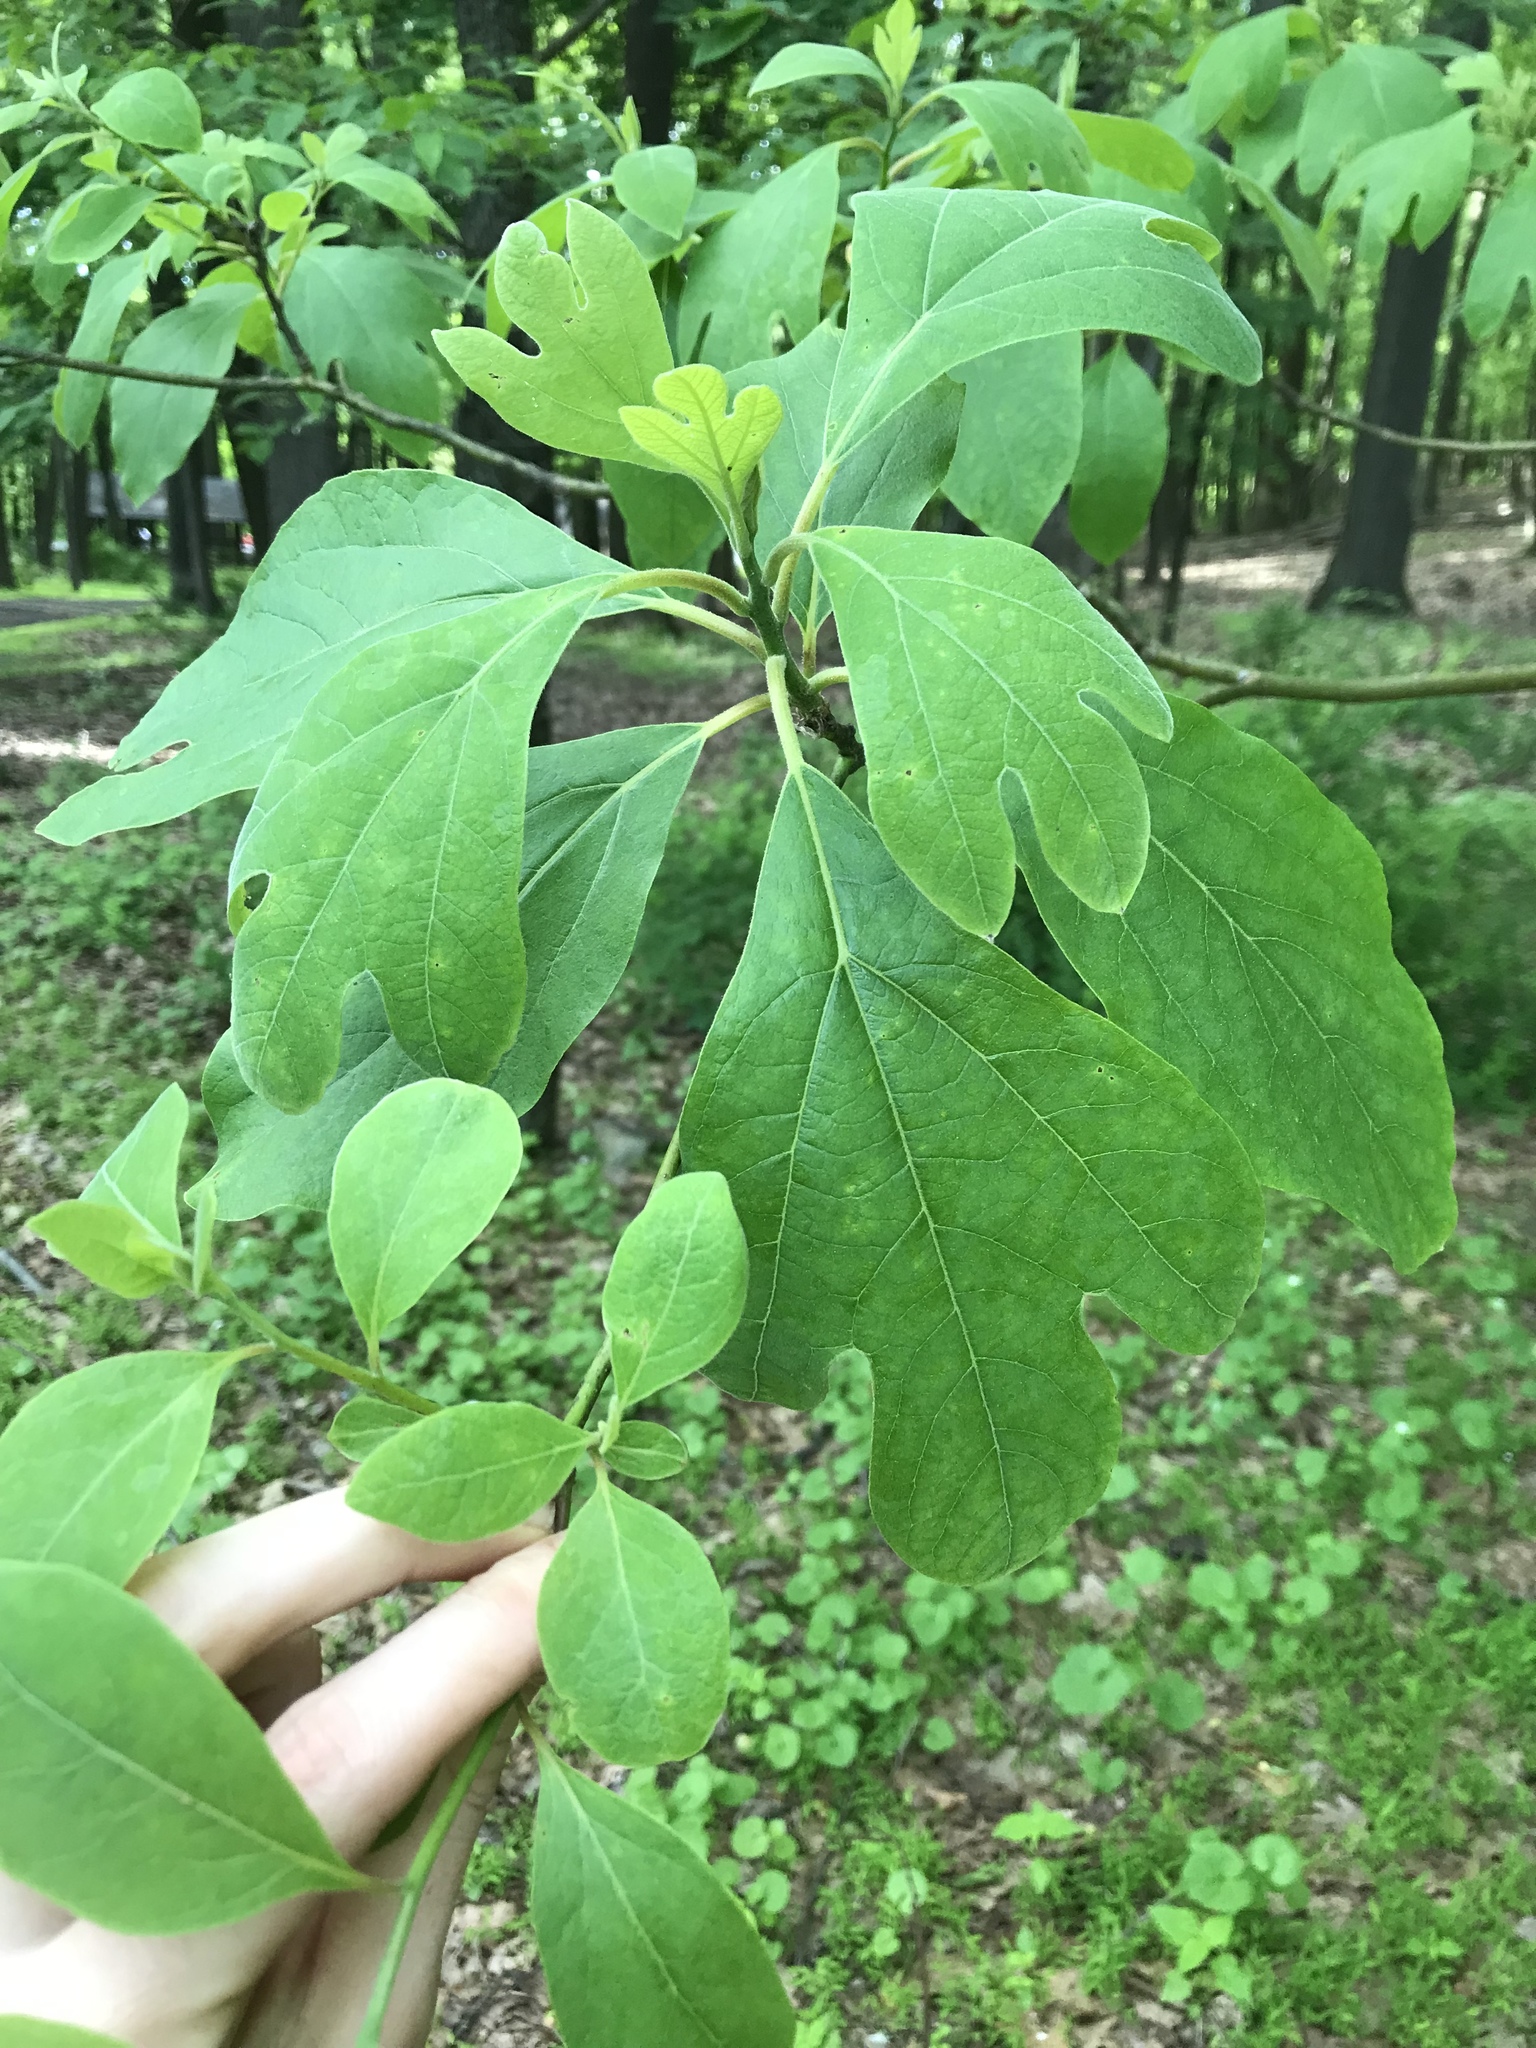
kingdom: Plantae
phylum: Tracheophyta
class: Magnoliopsida
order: Laurales
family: Lauraceae
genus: Sassafras
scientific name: Sassafras albidum
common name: Sassafras
